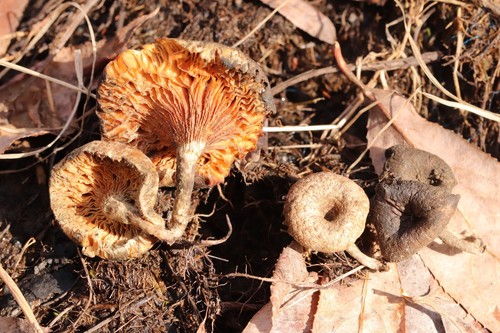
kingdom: Fungi
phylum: Basidiomycota
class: Agaricomycetes
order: Polyporales
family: Polyporaceae
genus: Lentinus
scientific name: Lentinus tigrinus
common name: Tiger sawgill
